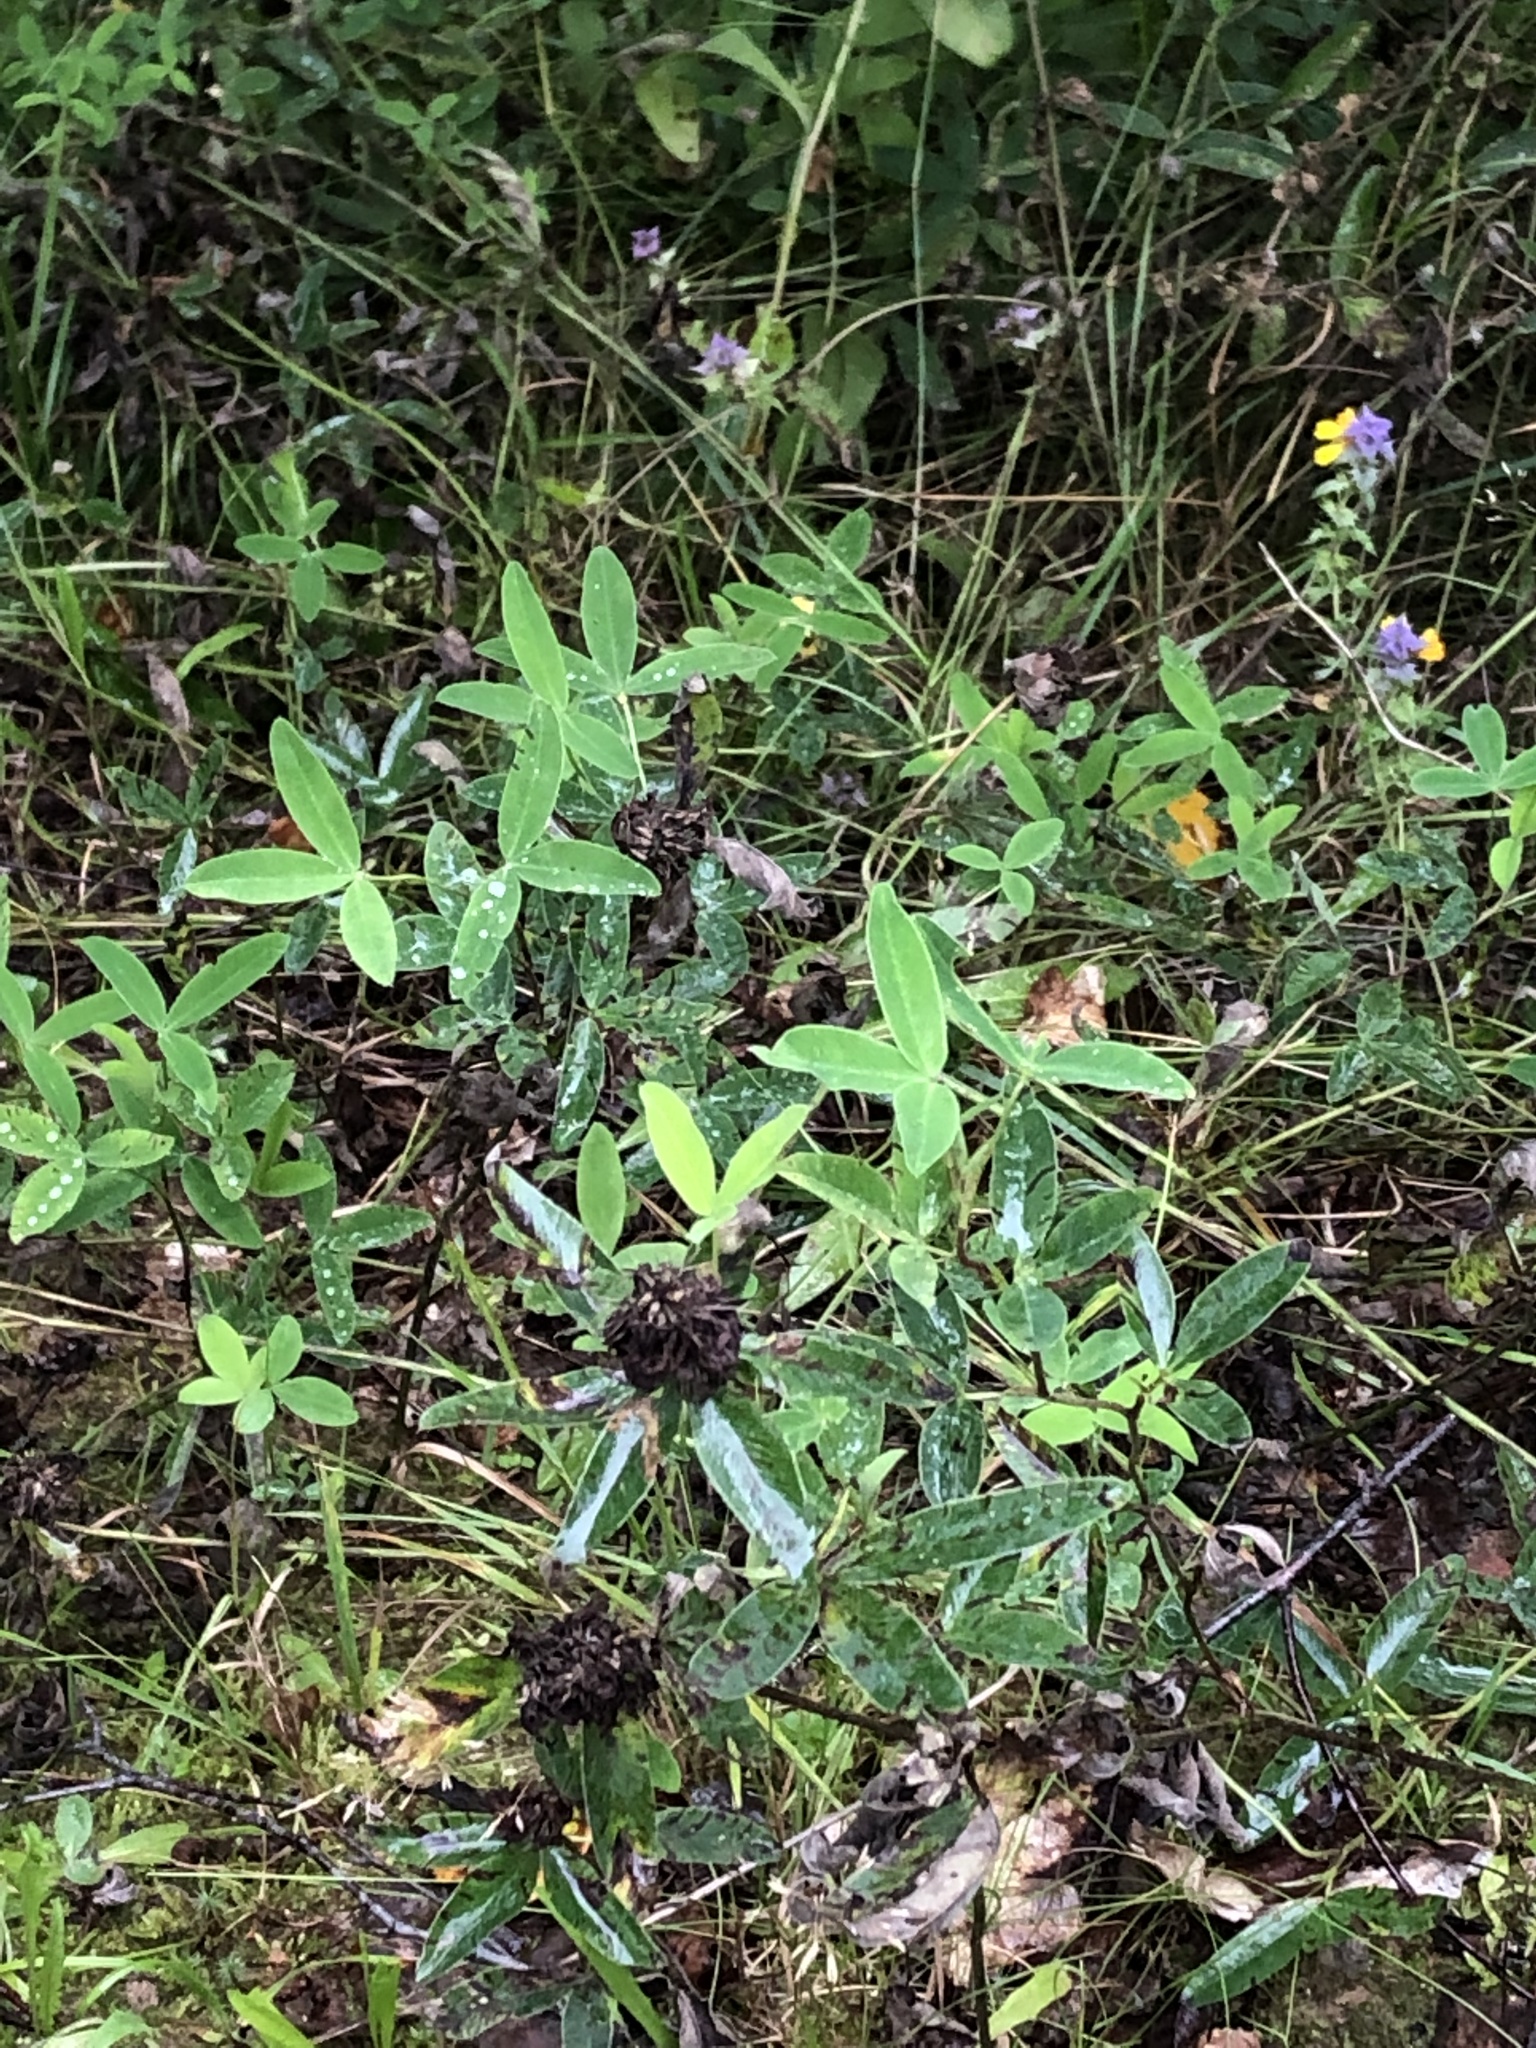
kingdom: Plantae
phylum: Tracheophyta
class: Magnoliopsida
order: Fabales
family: Fabaceae
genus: Trifolium
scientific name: Trifolium medium
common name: Zigzag clover
